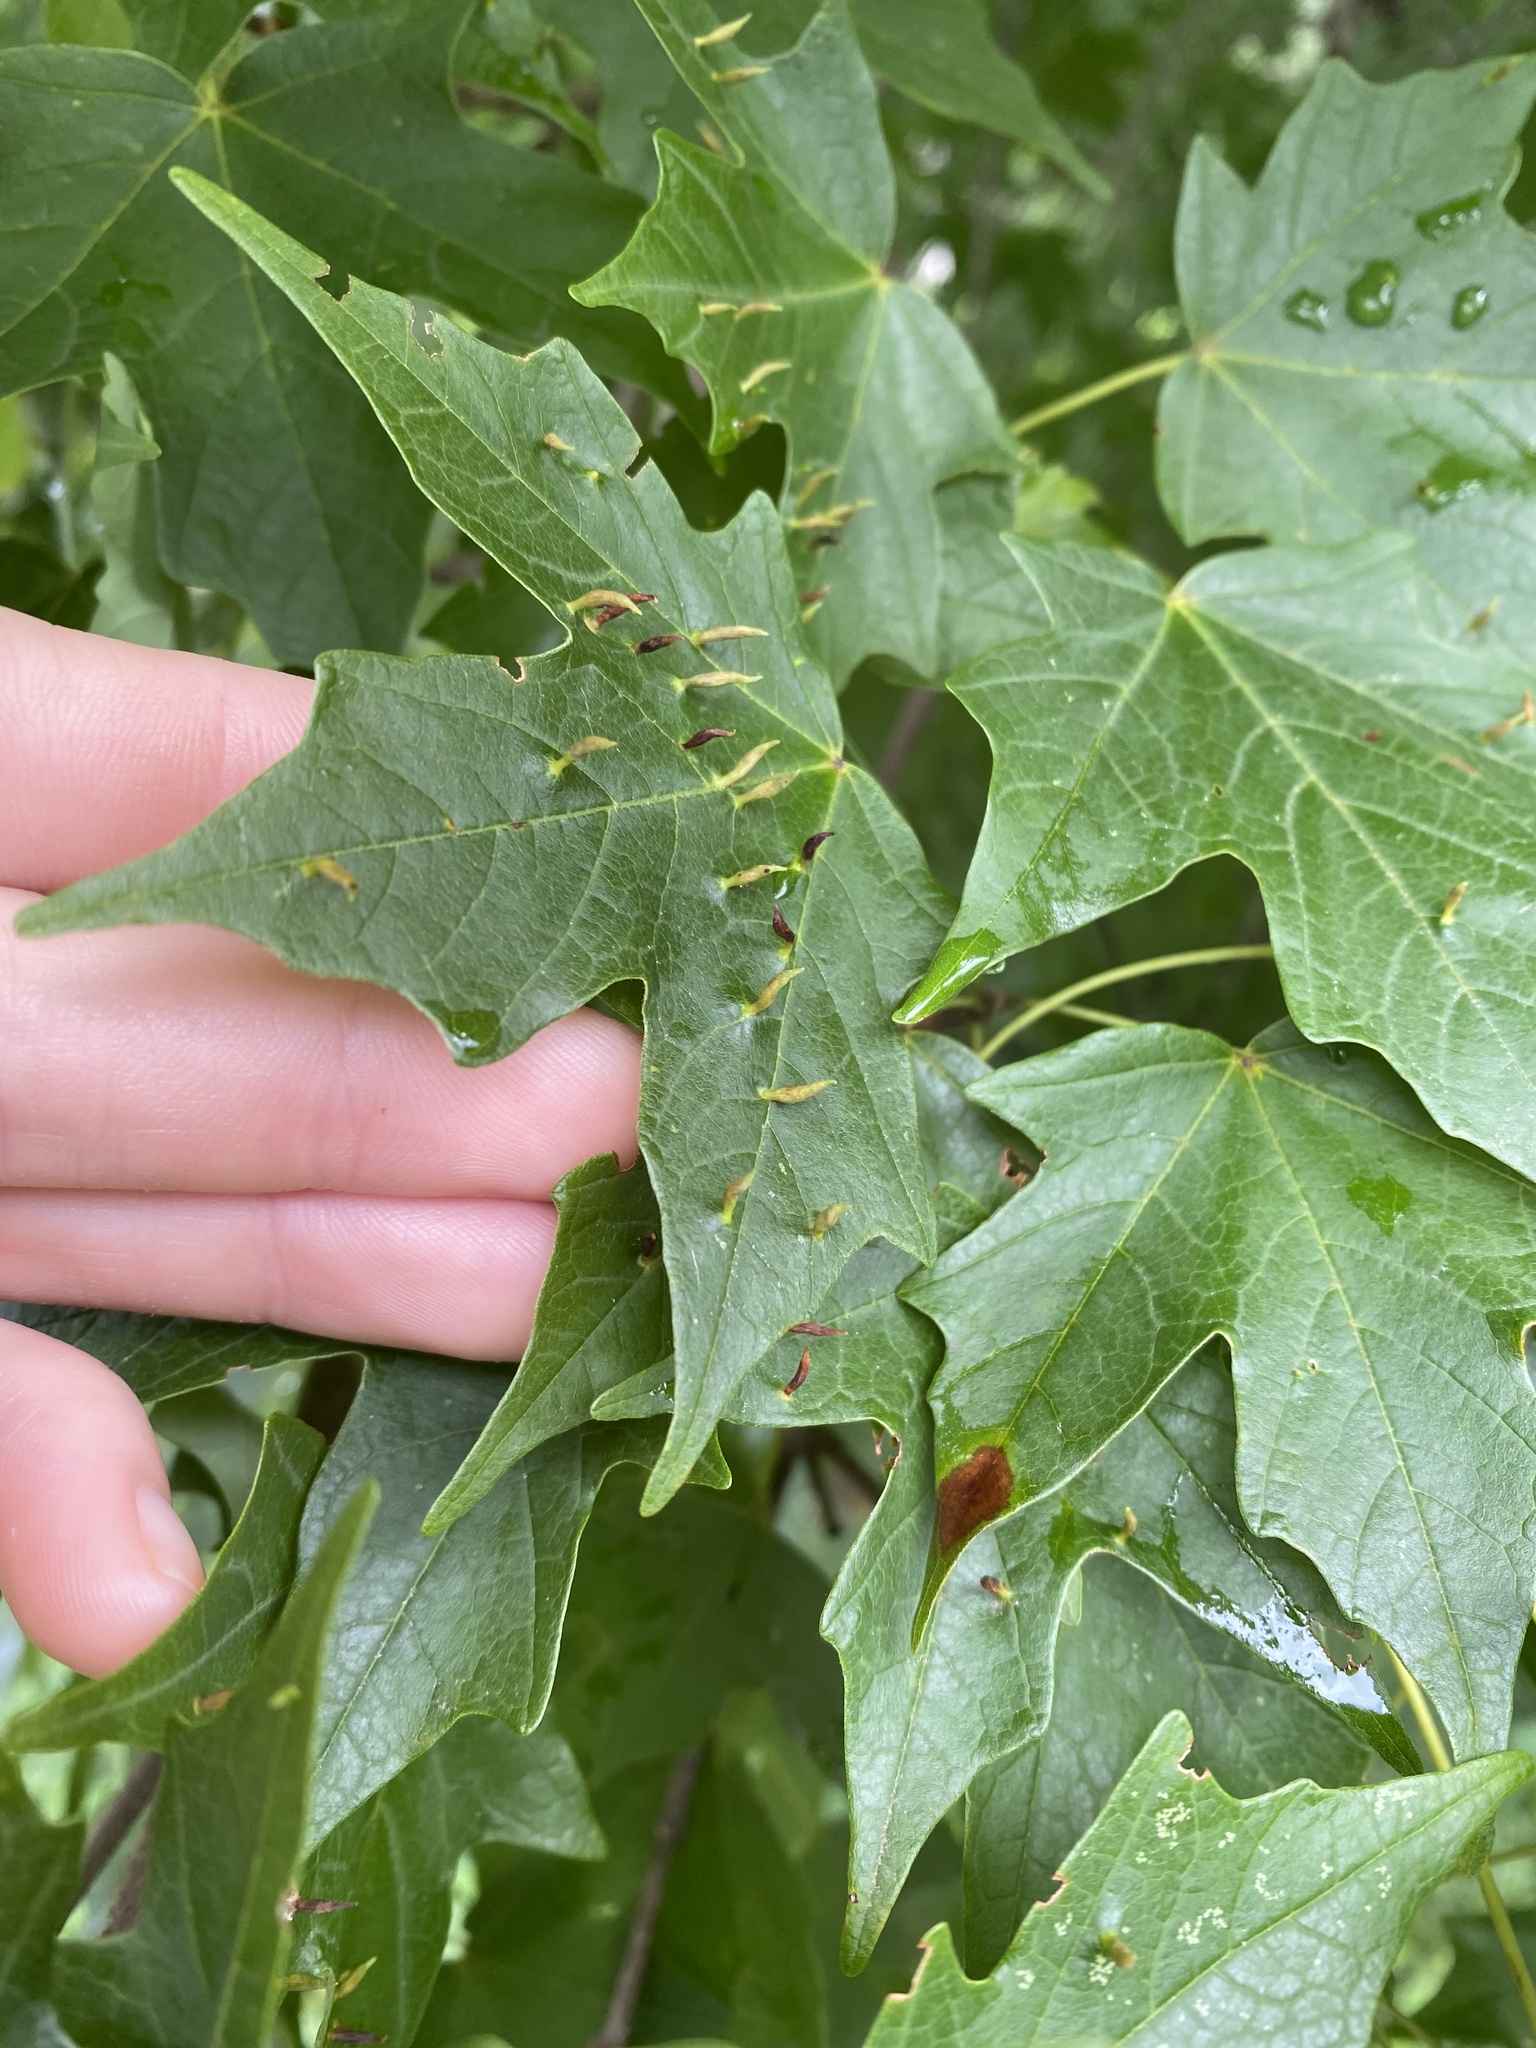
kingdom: Animalia
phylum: Arthropoda
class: Arachnida
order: Trombidiformes
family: Eriophyidae
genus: Vasates
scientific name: Vasates aceriscrumena
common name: Maple spindle gall mite
